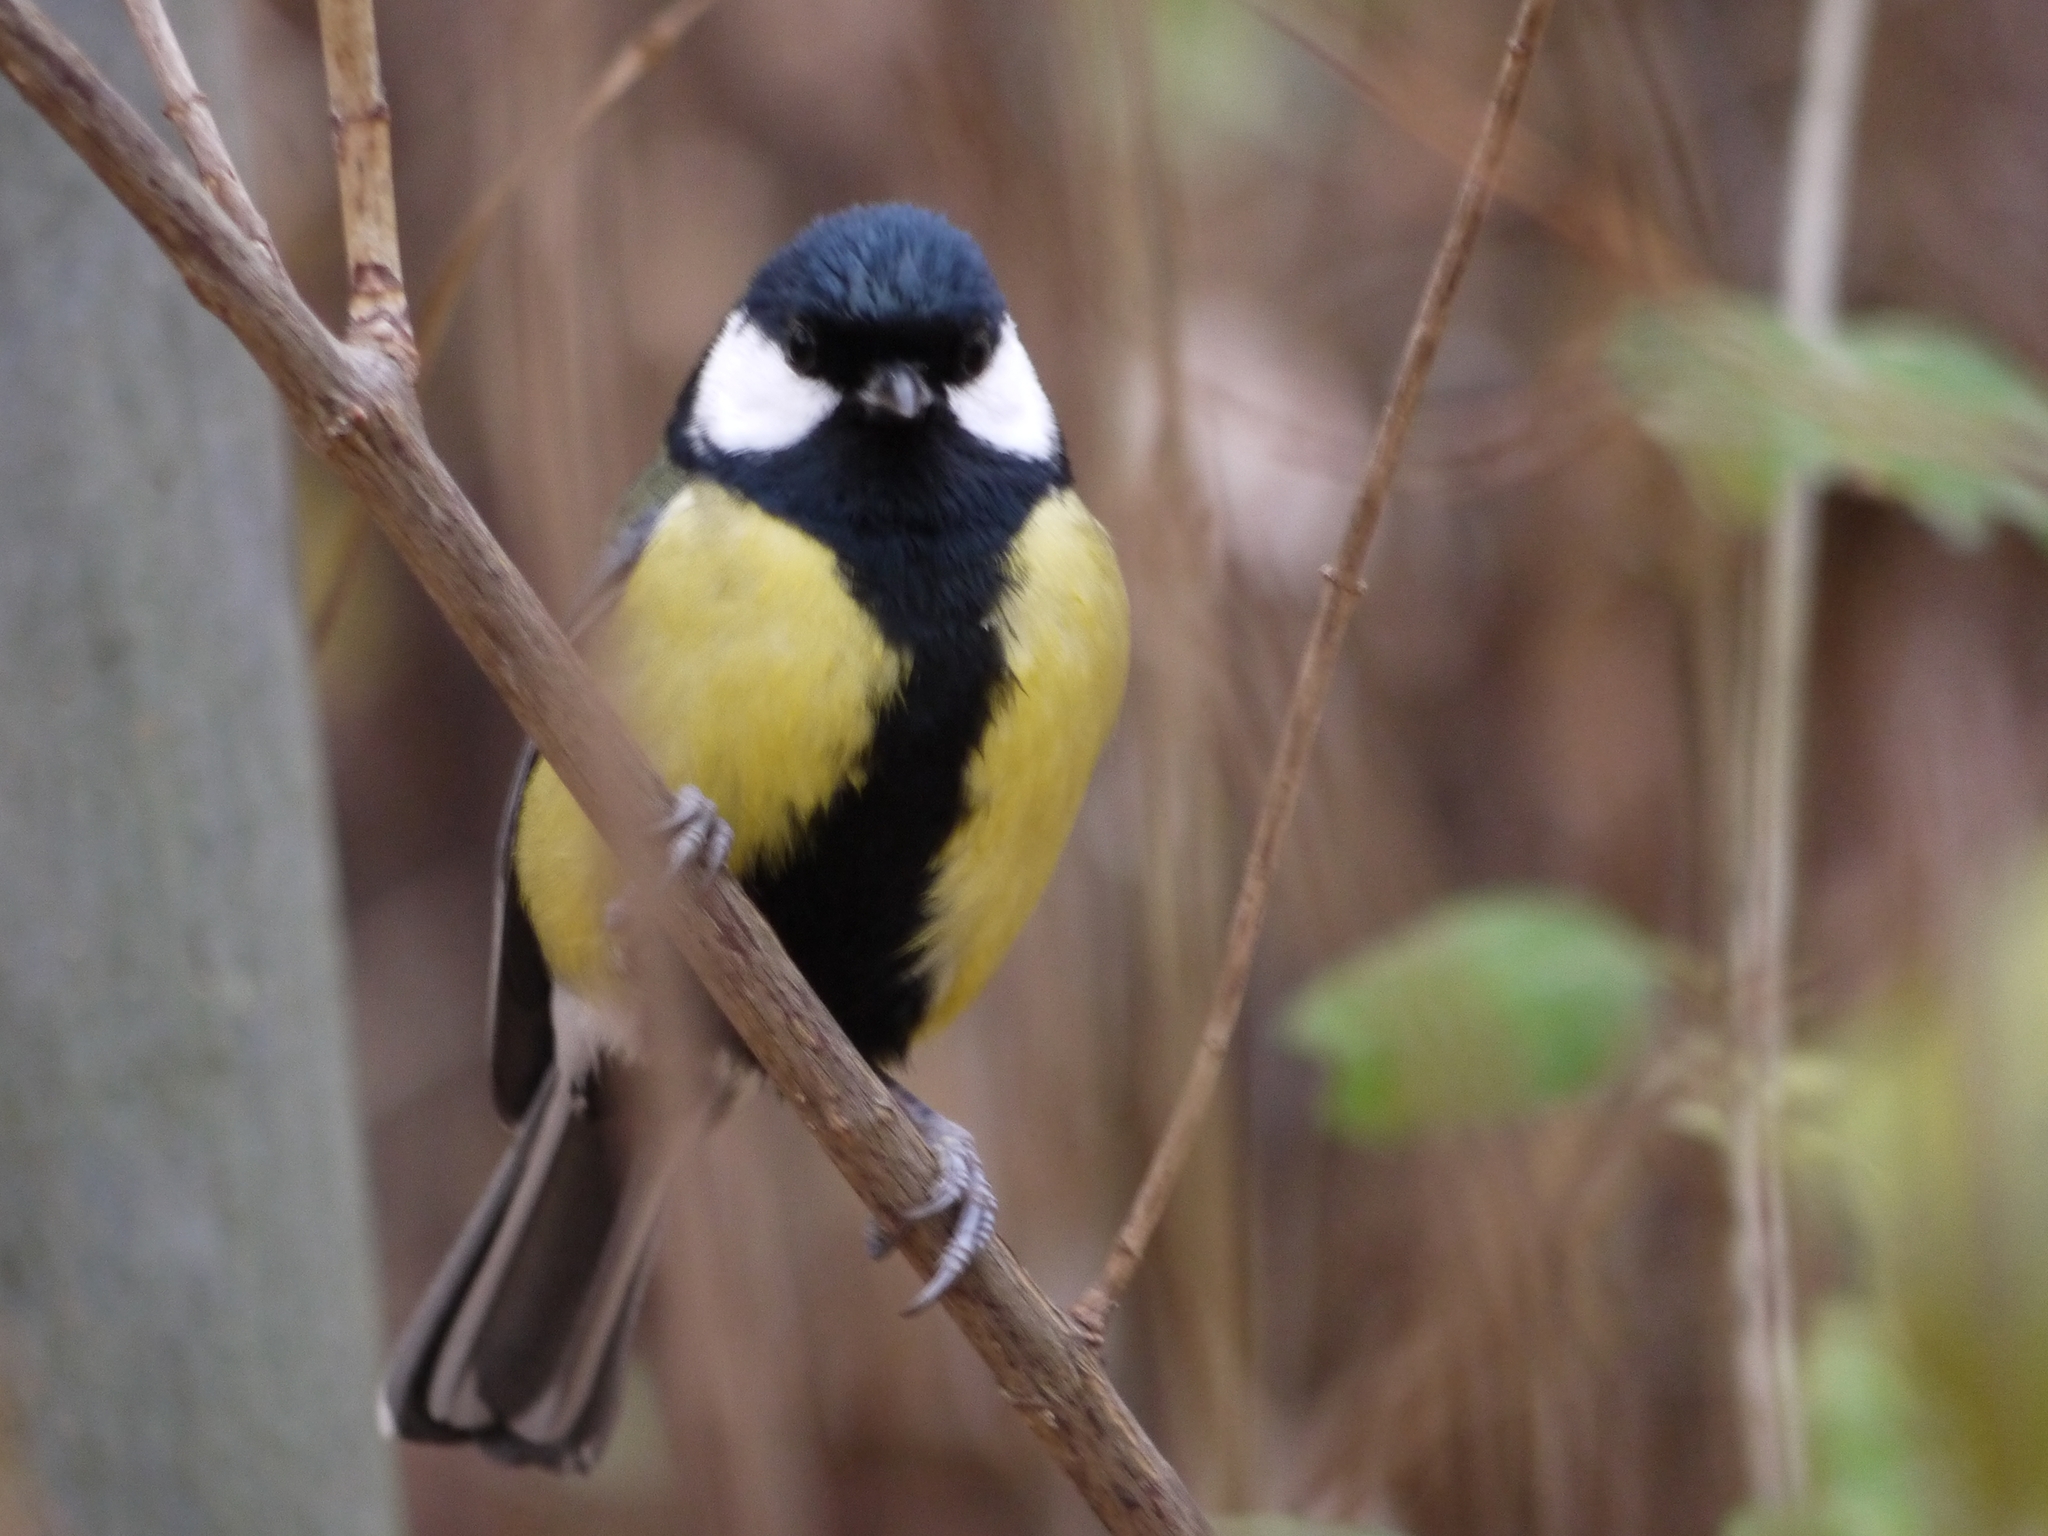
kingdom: Animalia
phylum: Chordata
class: Aves
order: Passeriformes
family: Paridae
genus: Parus
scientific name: Parus major
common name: Great tit
